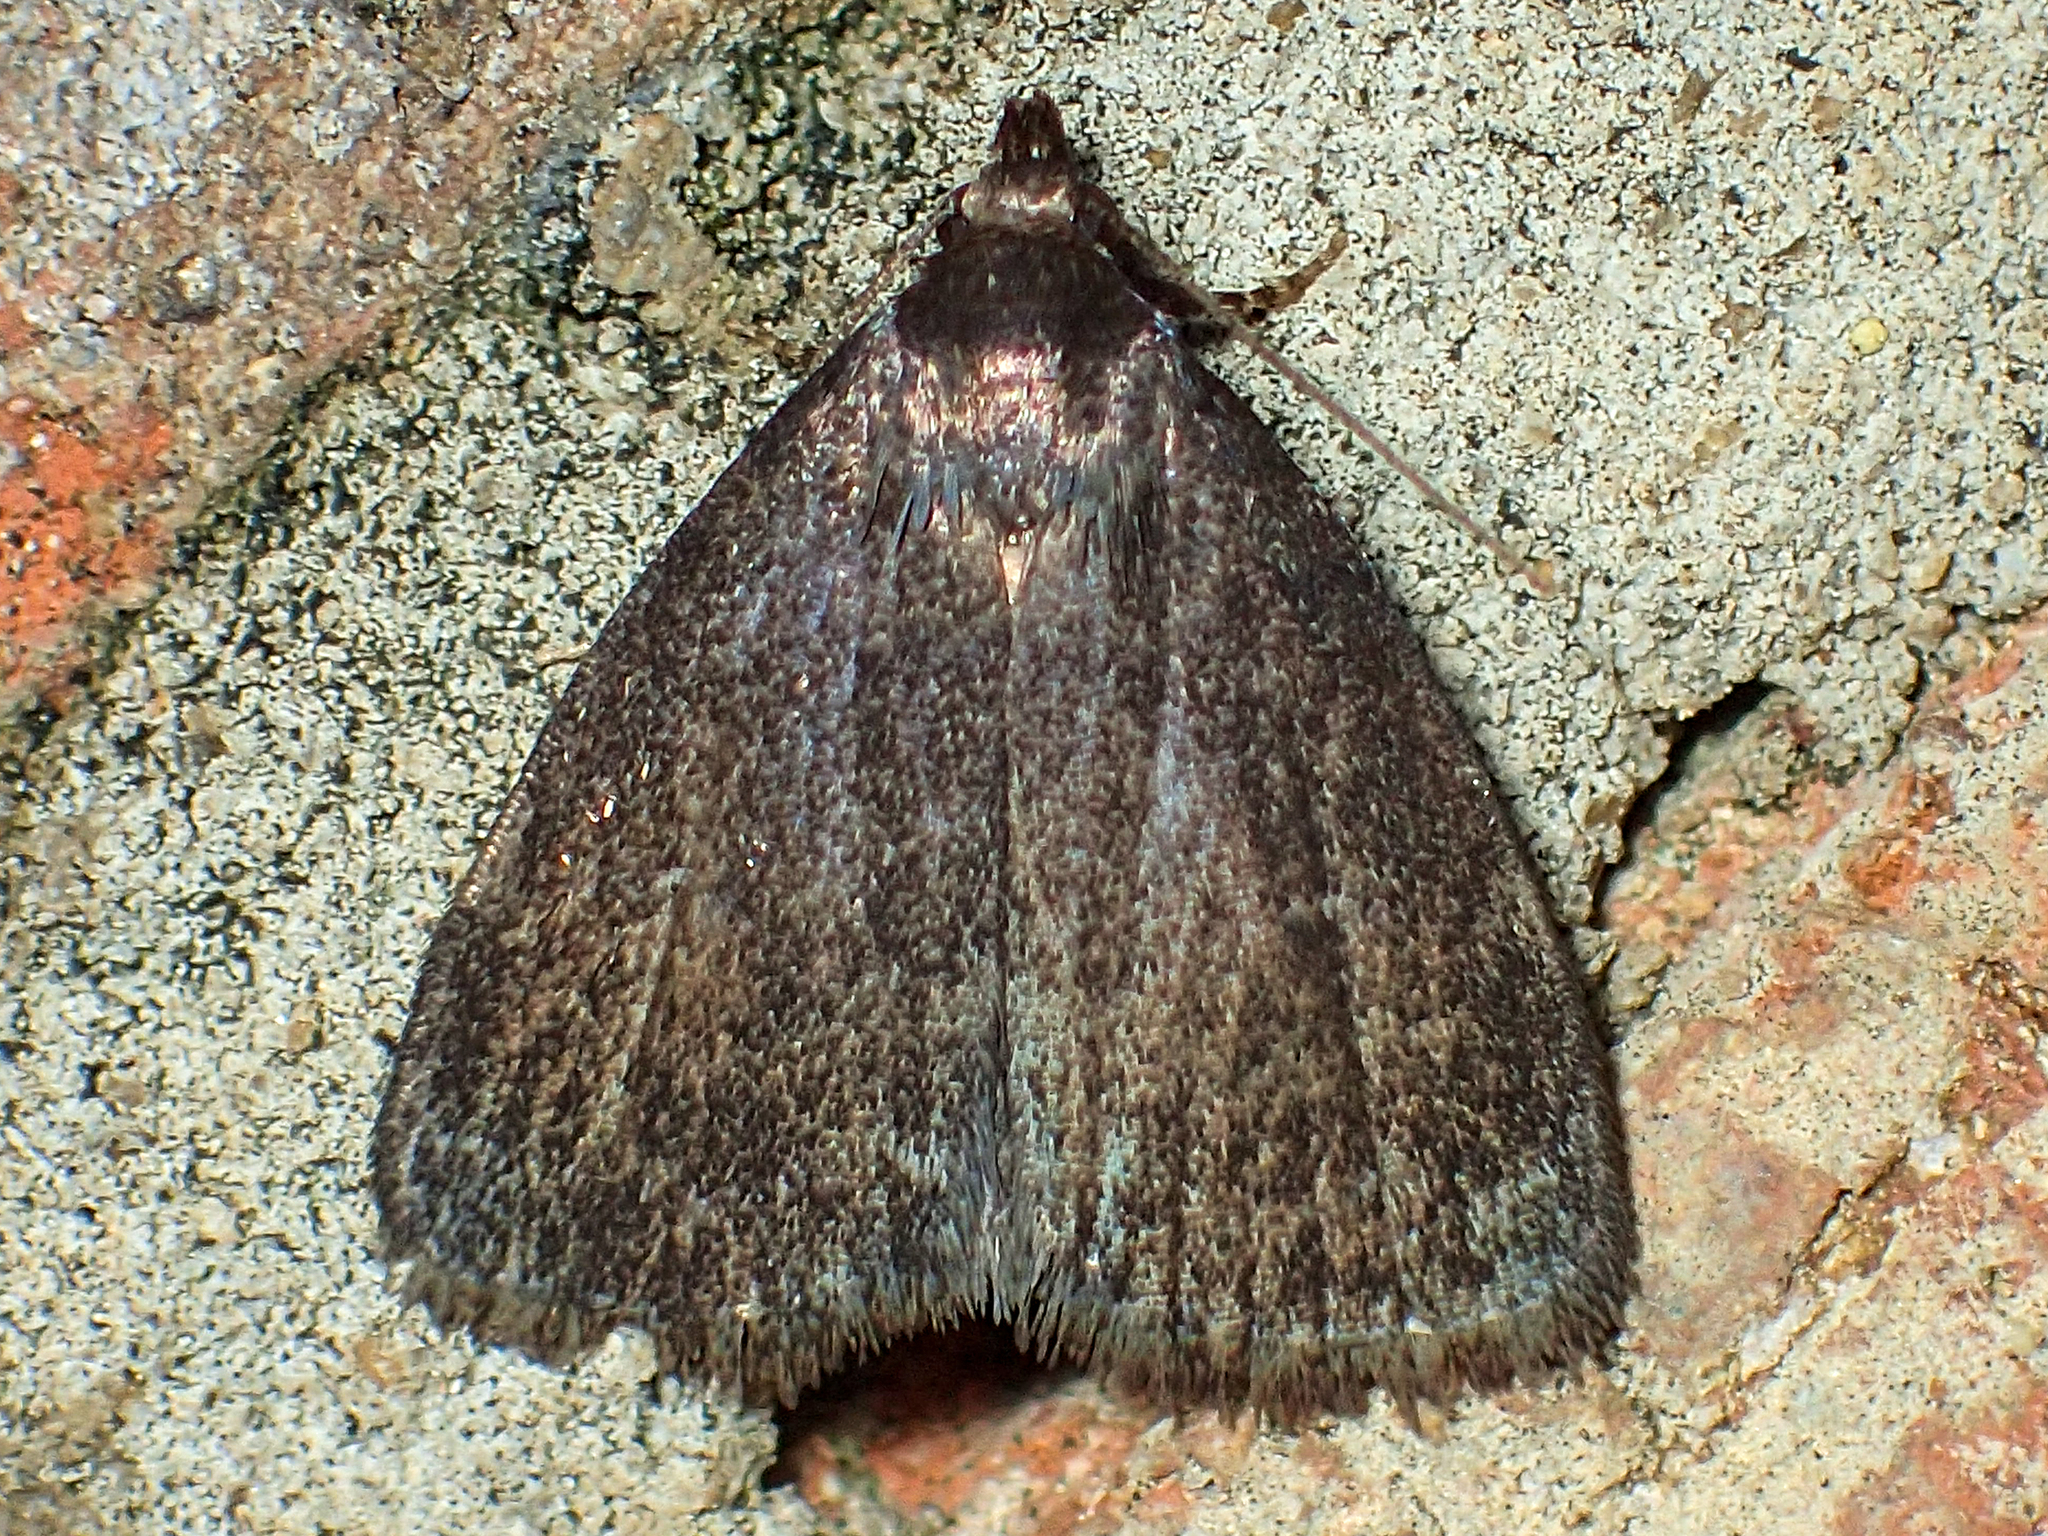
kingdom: Animalia
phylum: Arthropoda
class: Insecta
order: Lepidoptera
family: Erebidae
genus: Idia
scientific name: Idia rotundalis
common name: Rotund idia moth
